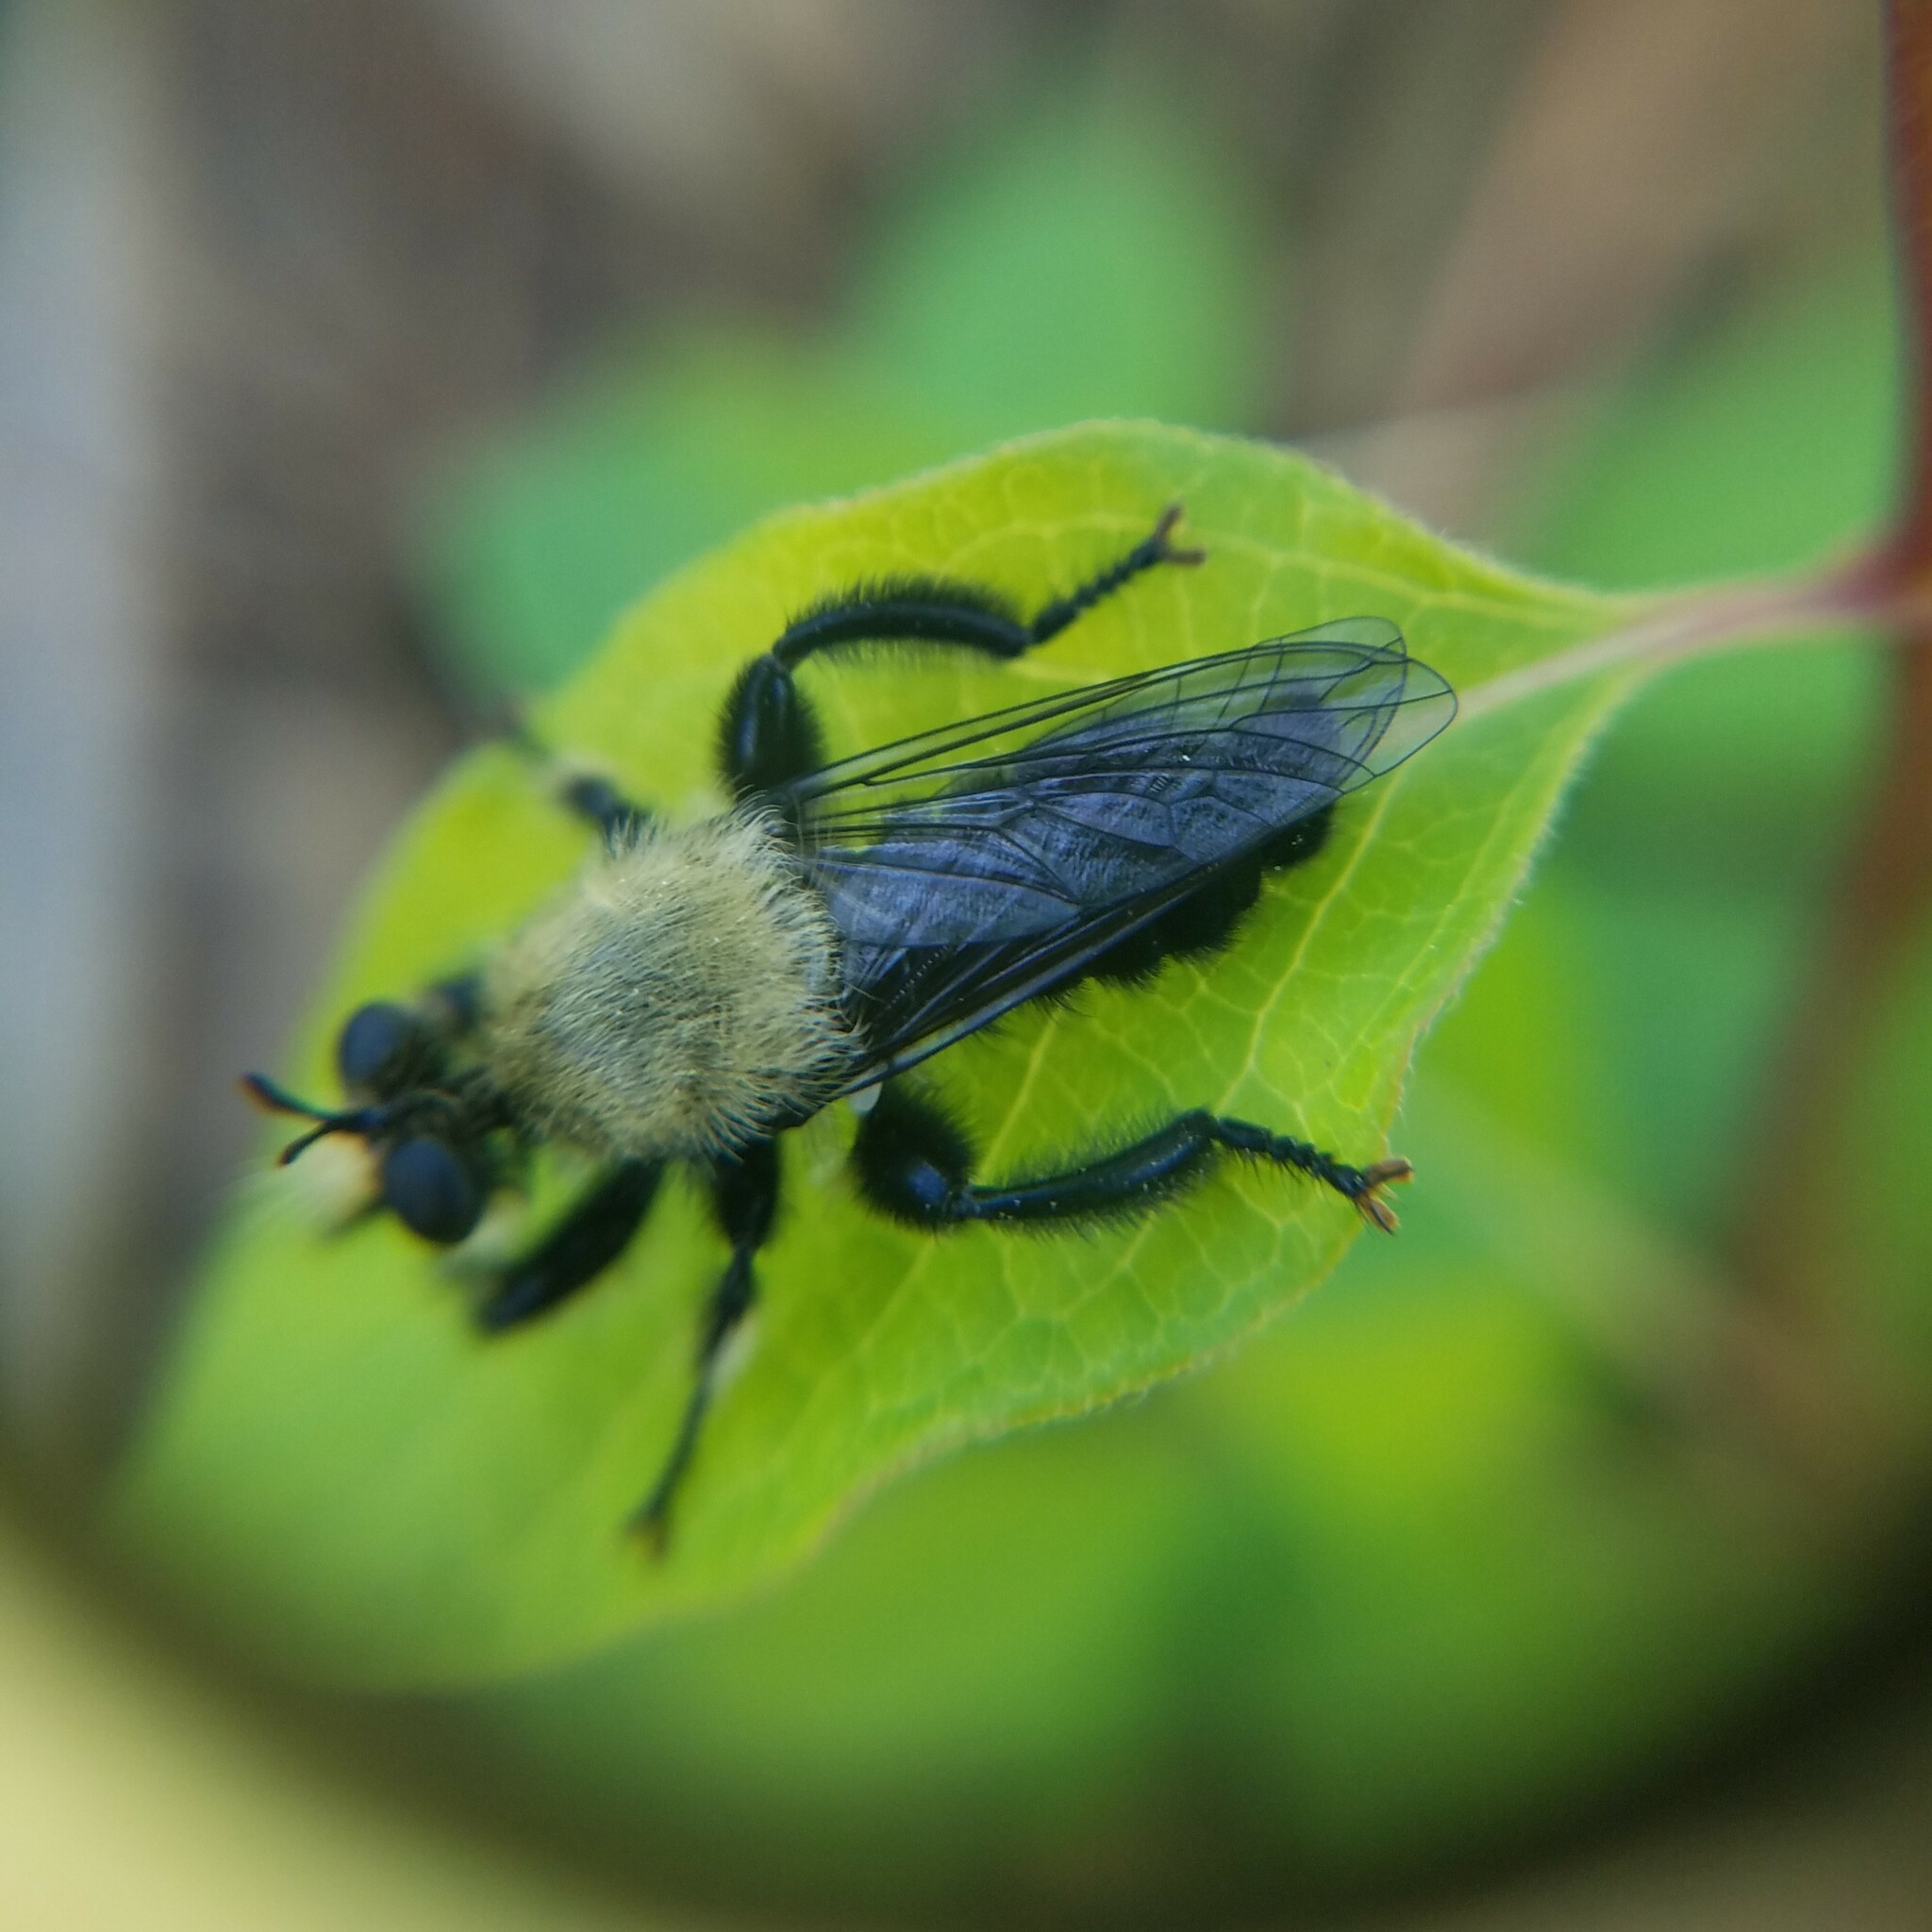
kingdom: Animalia
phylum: Arthropoda
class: Insecta
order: Diptera
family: Asilidae
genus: Laphria
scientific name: Laphria flavicollis
